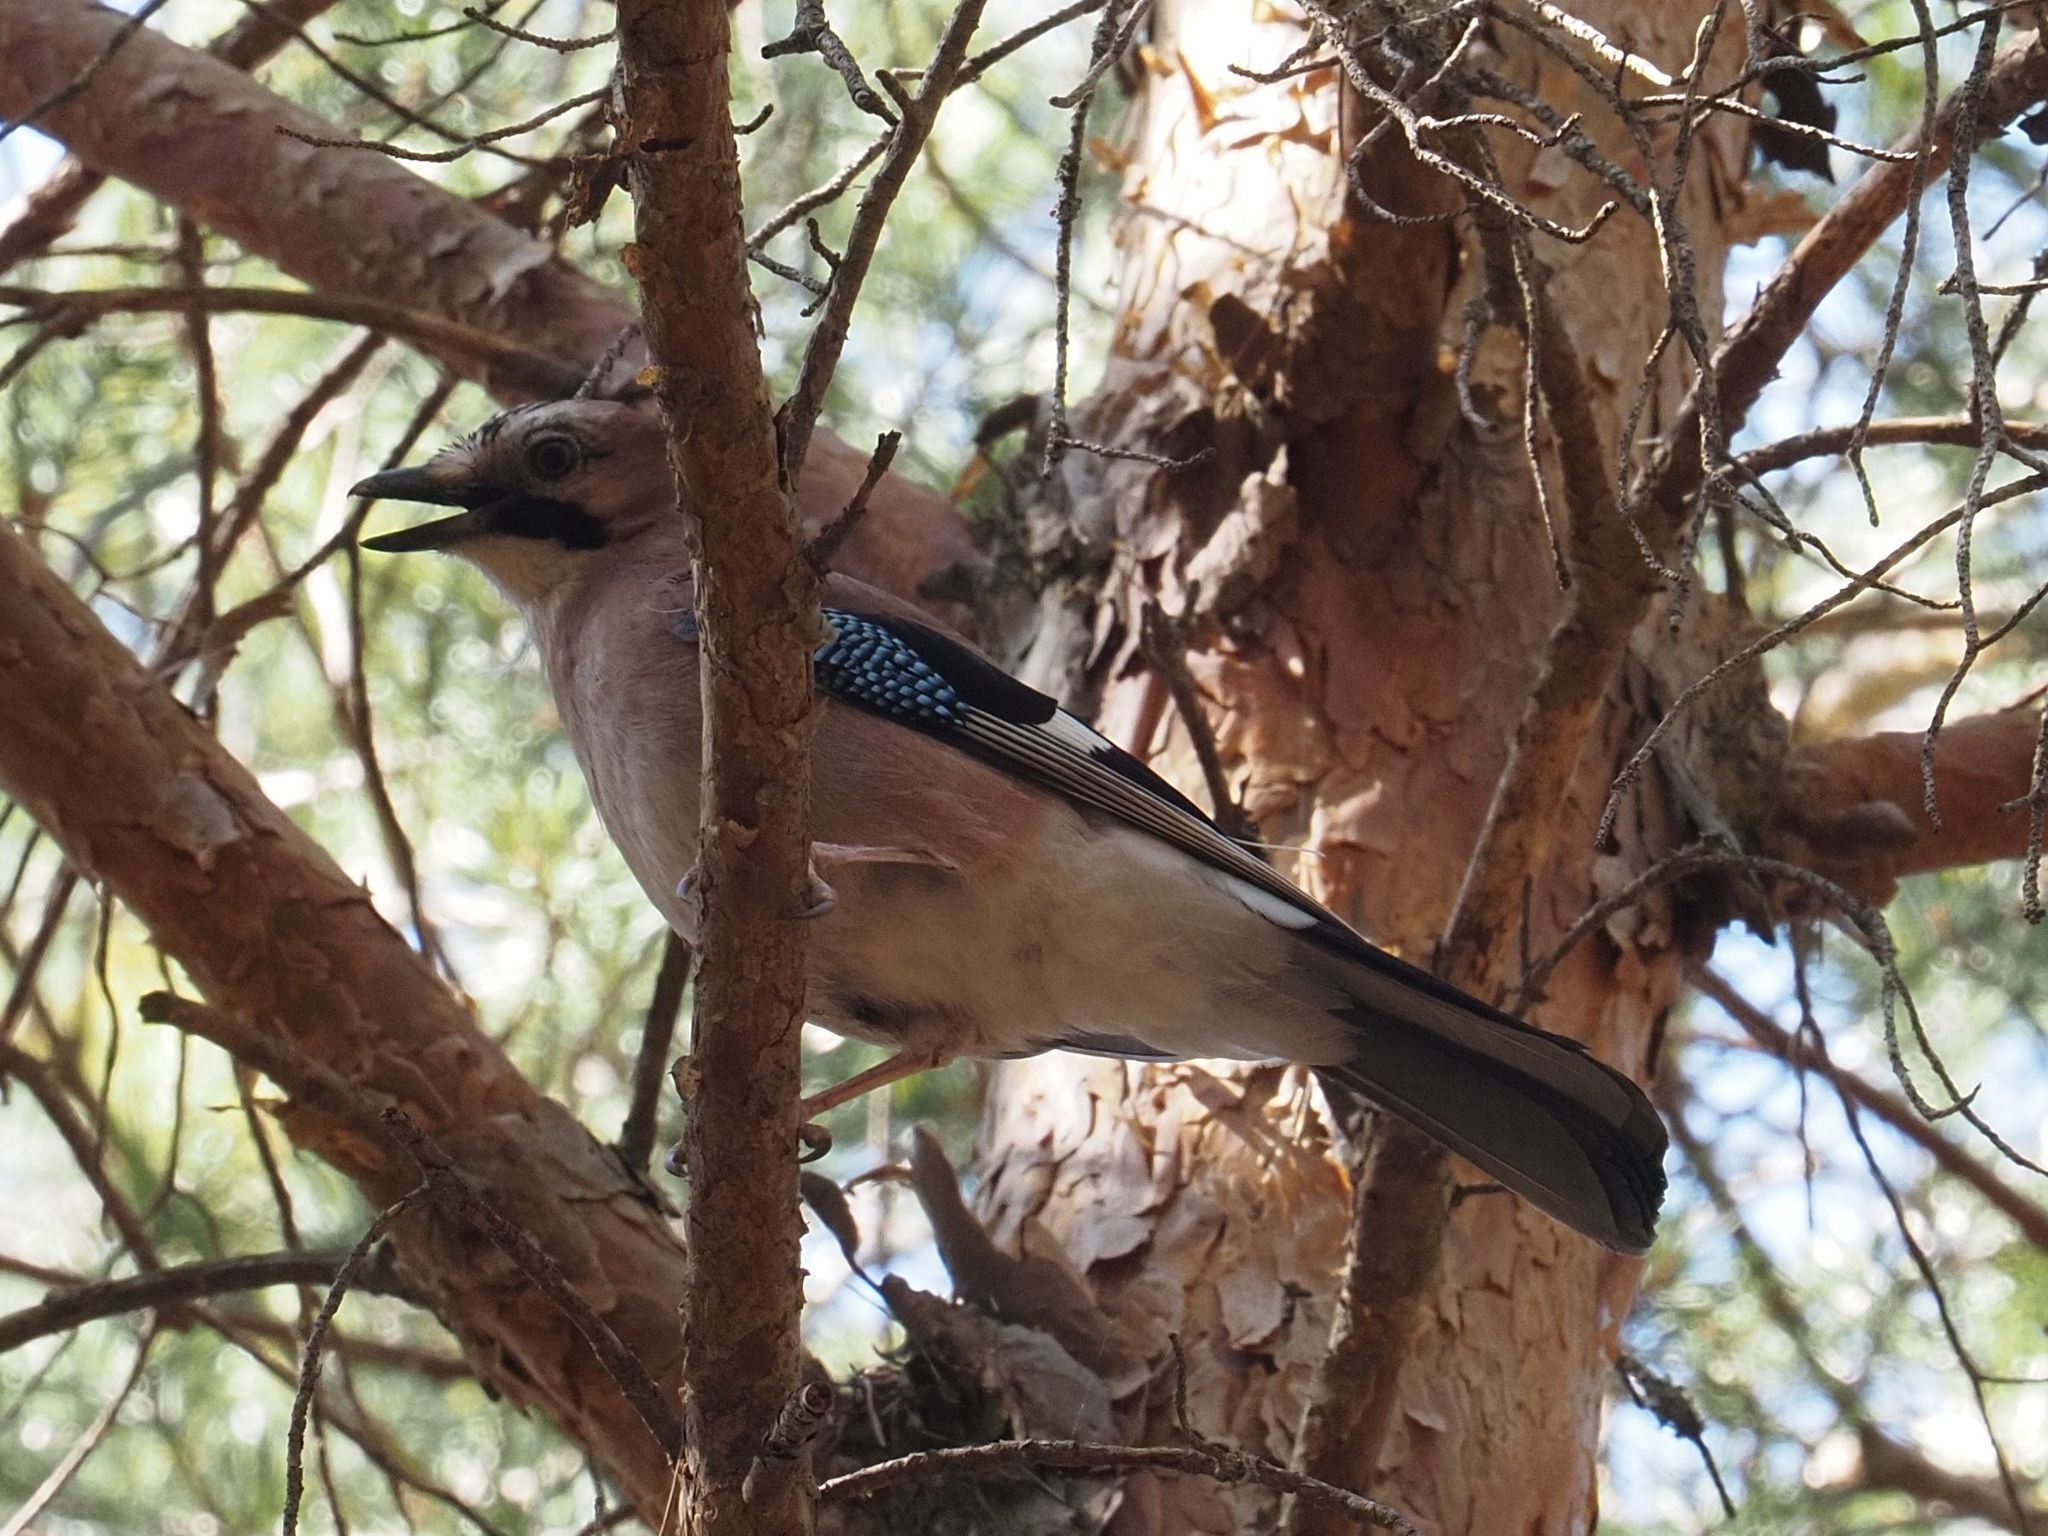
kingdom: Animalia
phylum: Chordata
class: Aves
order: Passeriformes
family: Corvidae
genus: Garrulus
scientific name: Garrulus glandarius
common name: Eurasian jay
